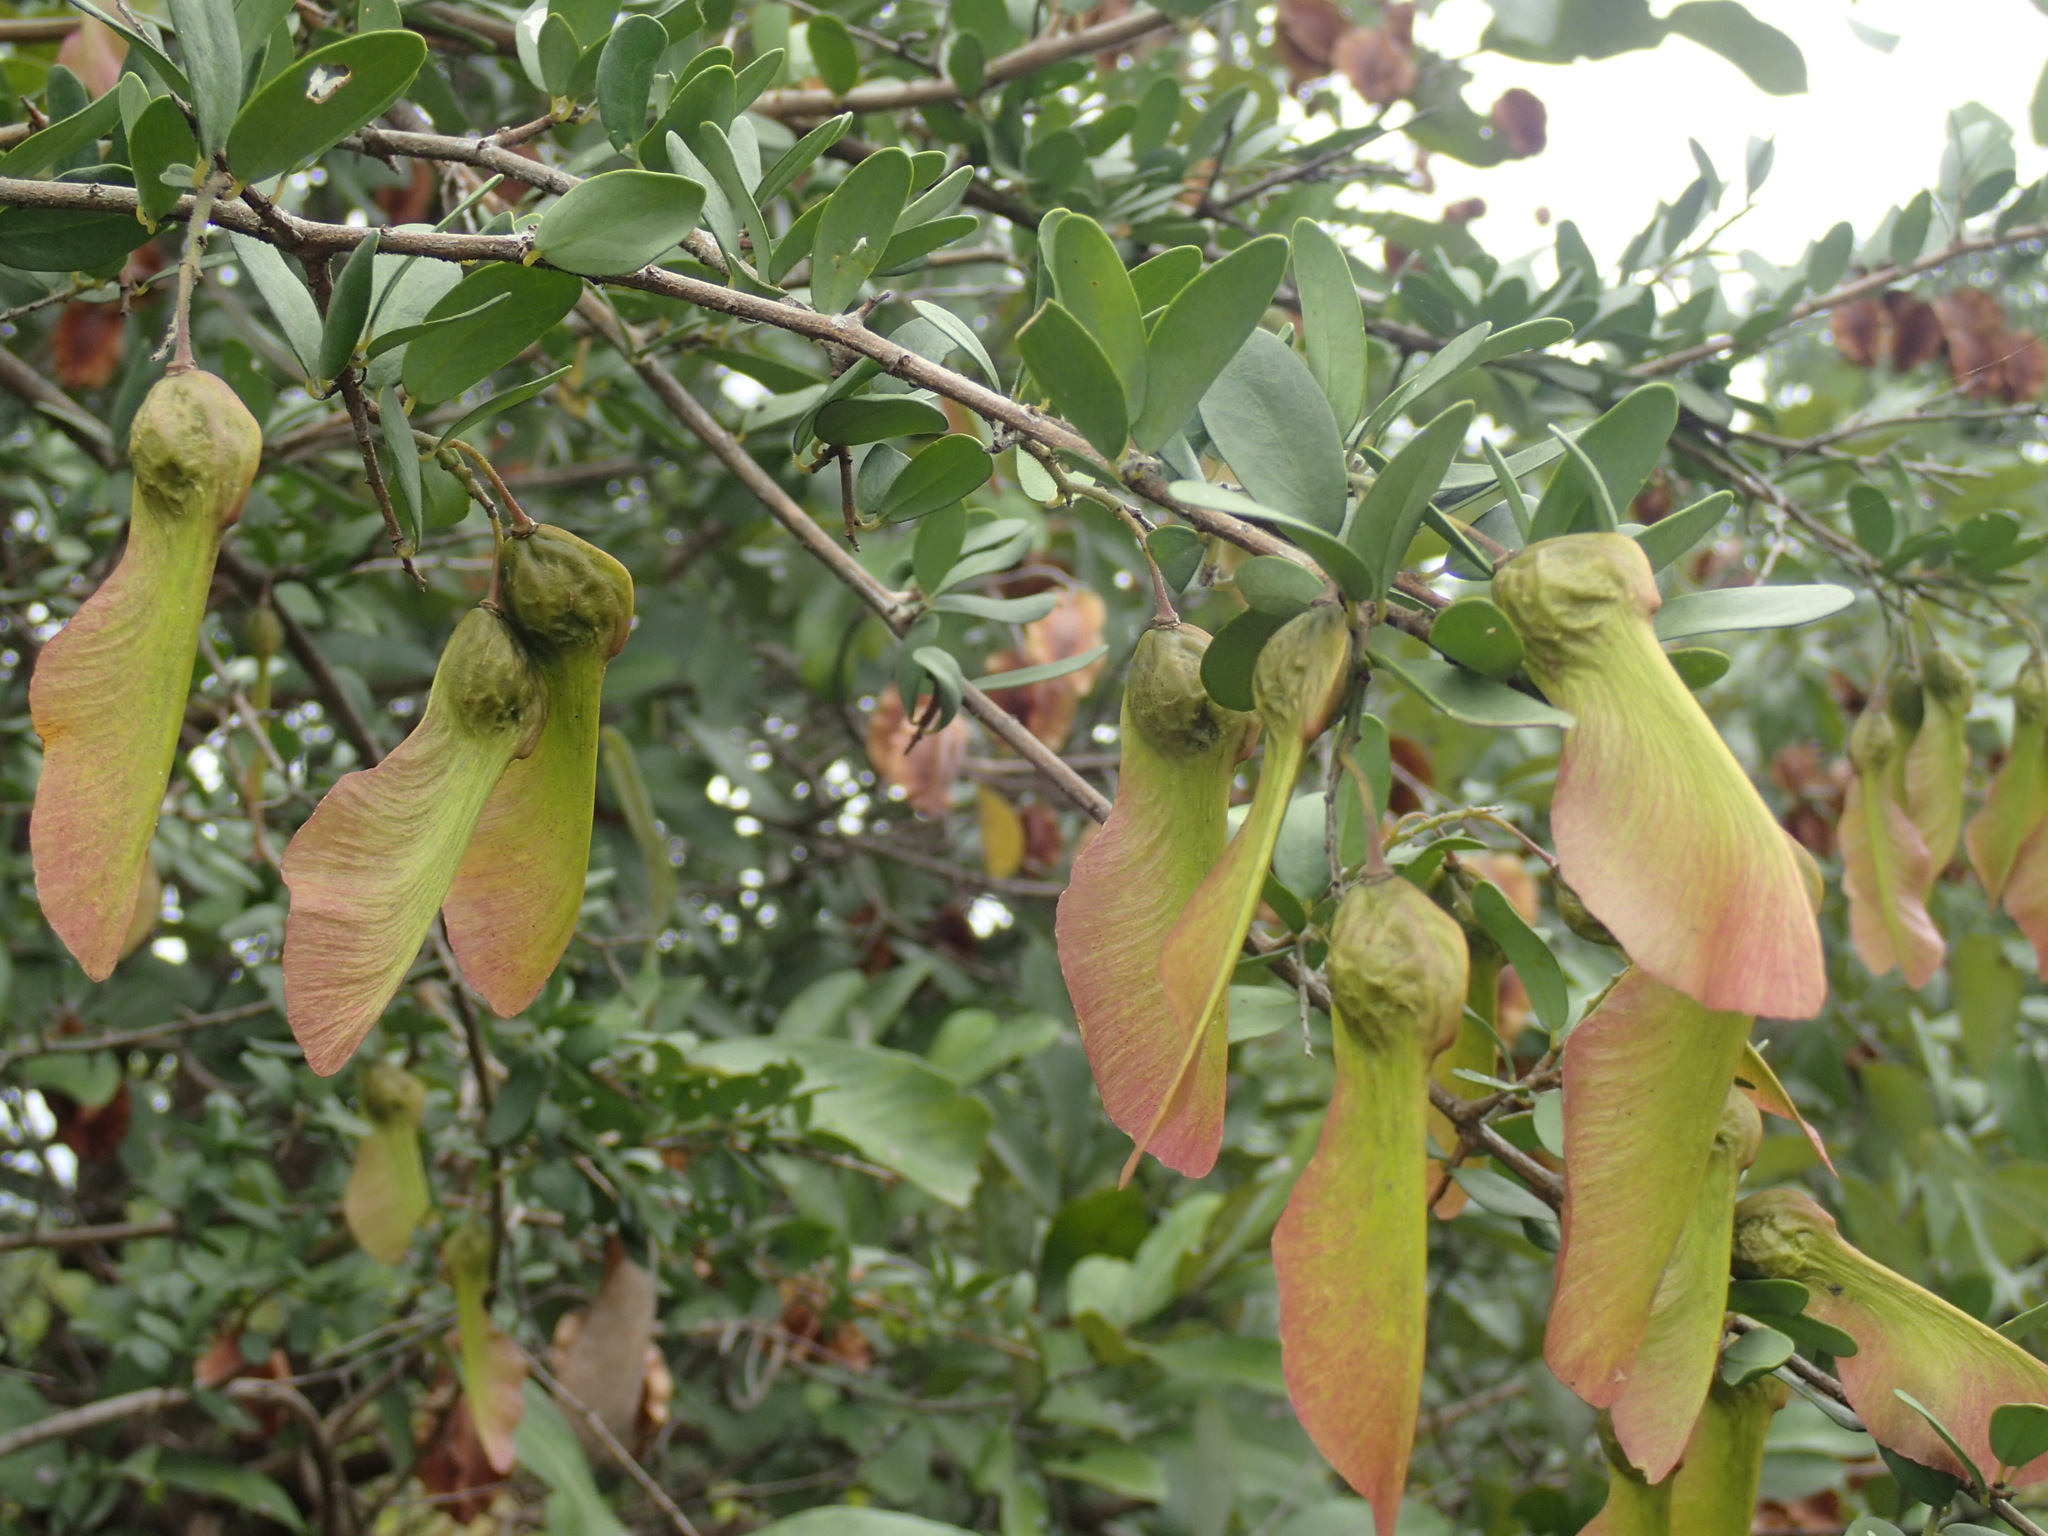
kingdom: Plantae
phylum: Tracheophyta
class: Magnoliopsida
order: Fabales
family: Polygalaceae
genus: Securidaca
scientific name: Securidaca longepedunculata
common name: Violet tree
